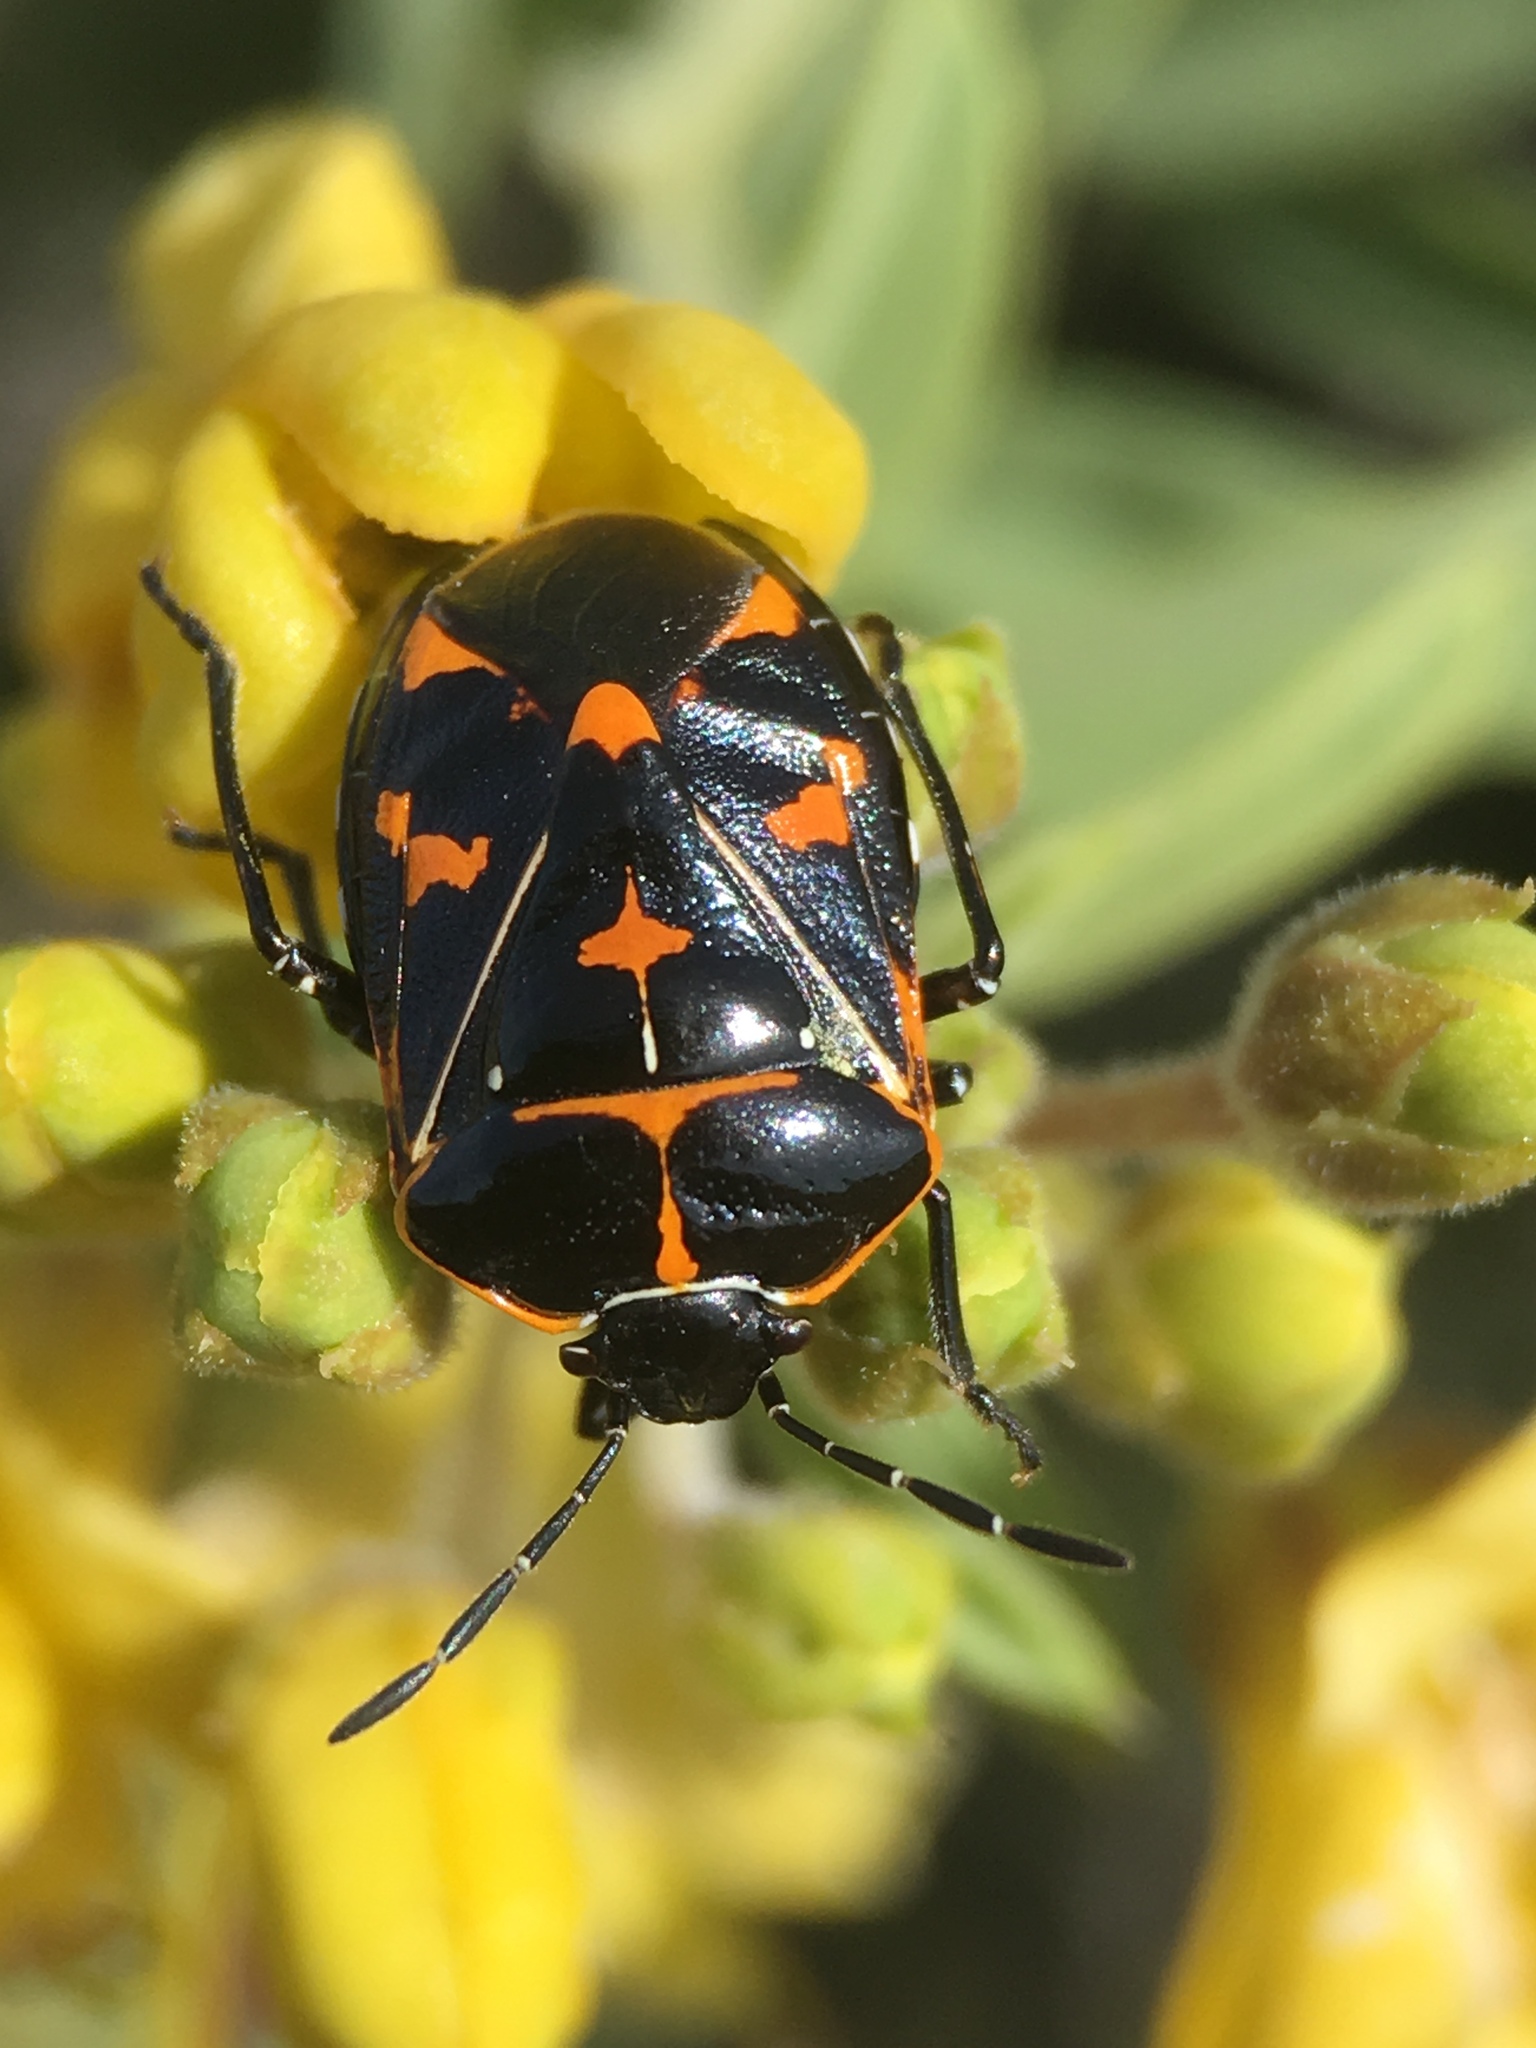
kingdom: Animalia
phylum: Arthropoda
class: Insecta
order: Hemiptera
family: Pentatomidae
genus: Murgantia
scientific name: Murgantia histrionica
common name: Harlequin bug
